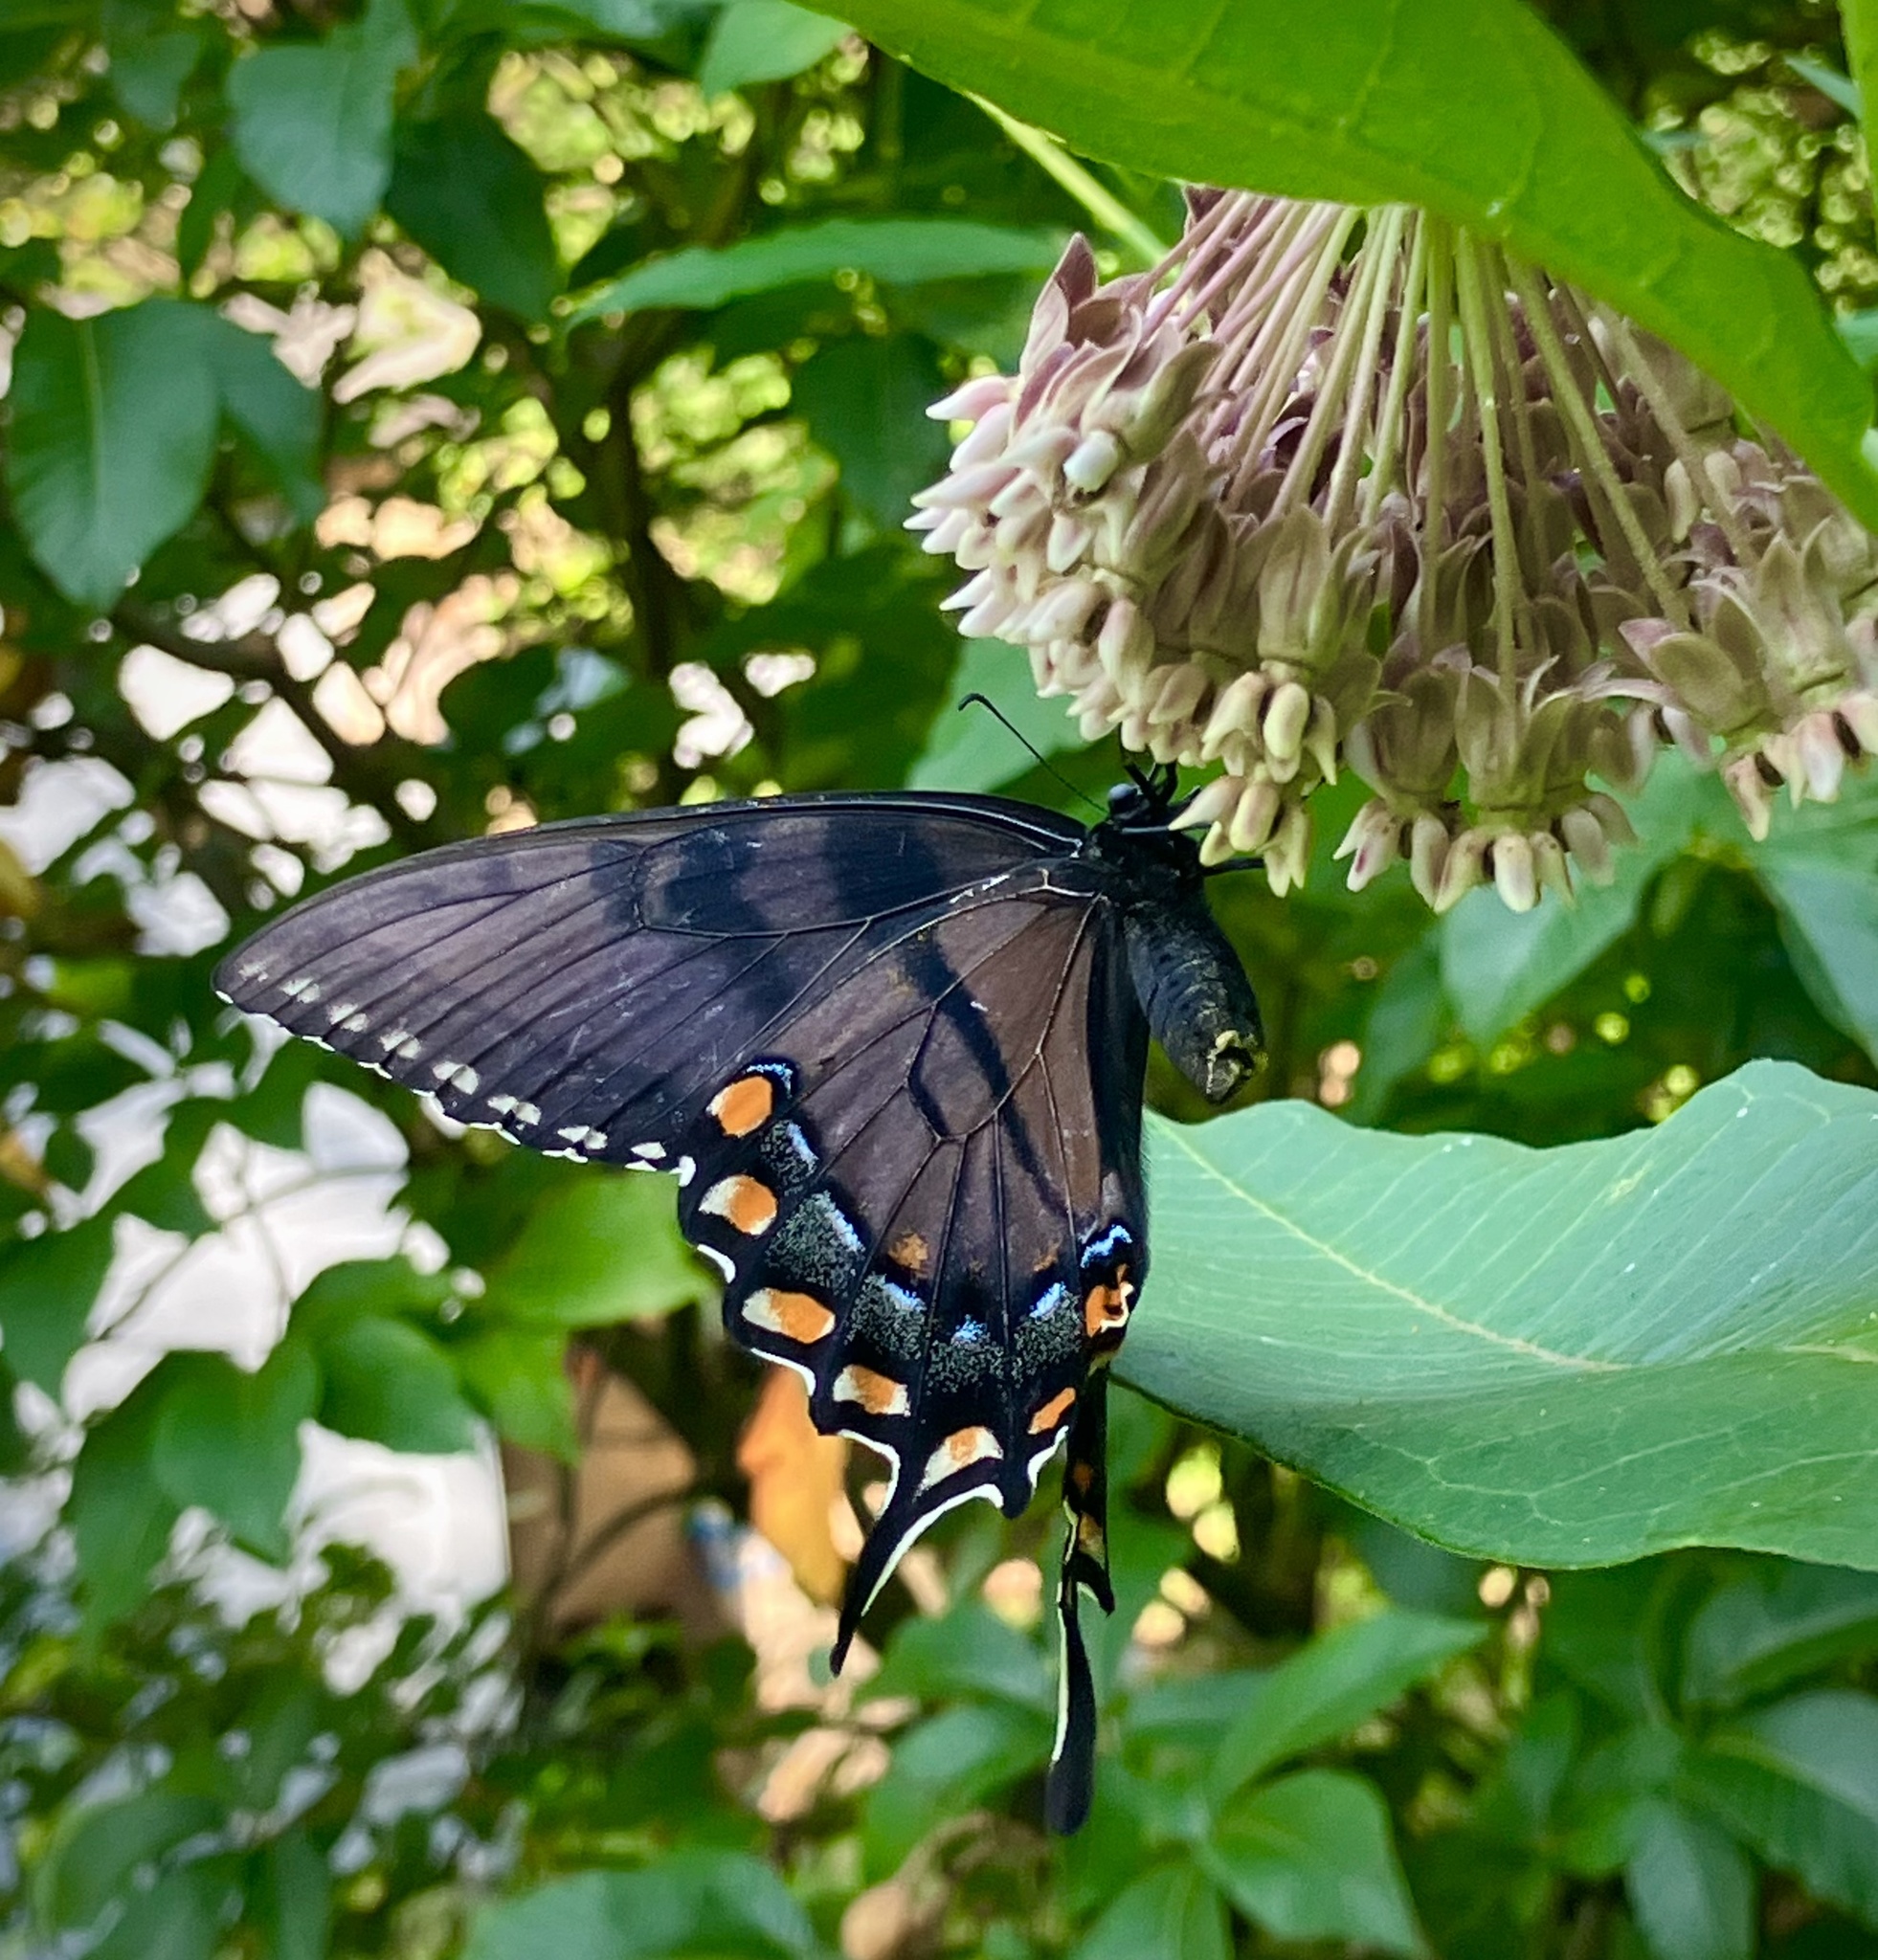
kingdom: Animalia
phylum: Arthropoda
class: Insecta
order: Lepidoptera
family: Papilionidae
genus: Papilio
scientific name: Papilio glaucus
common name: Tiger swallowtail
